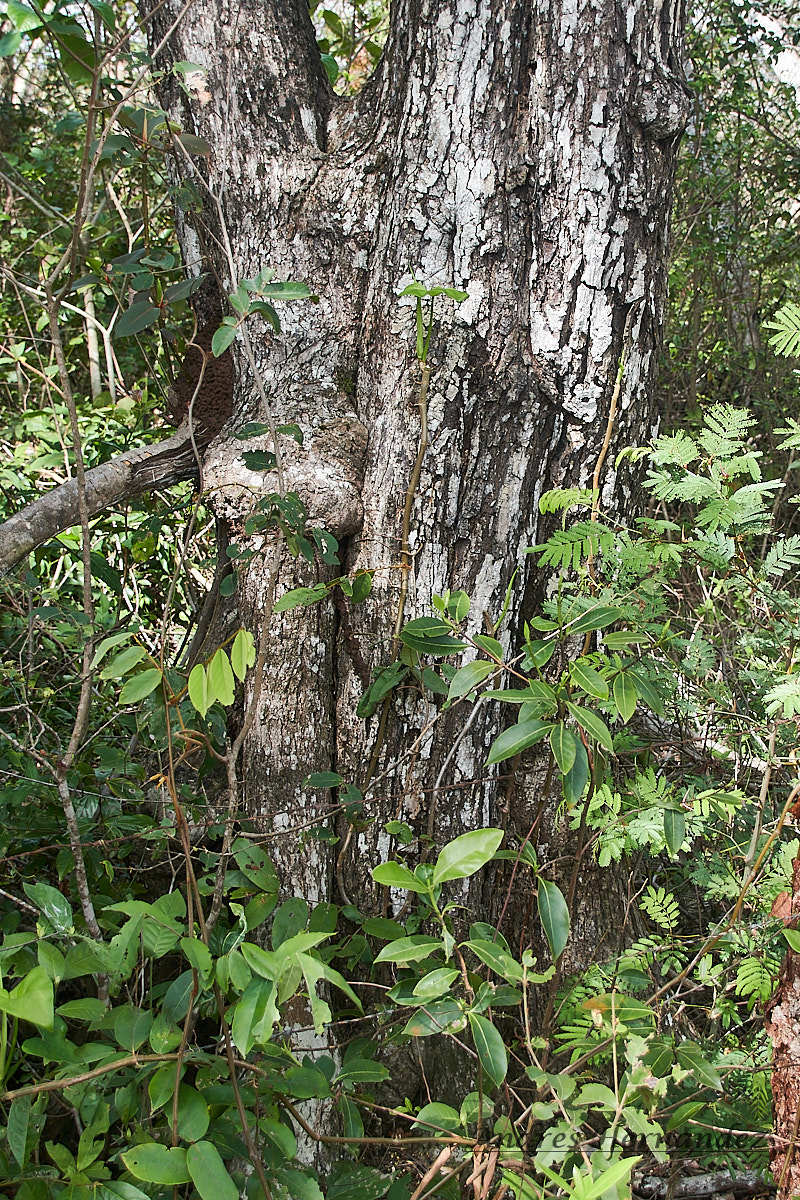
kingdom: Plantae
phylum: Tracheophyta
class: Magnoliopsida
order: Malvales
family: Malvaceae
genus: Luehea
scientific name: Luehea speciosa
